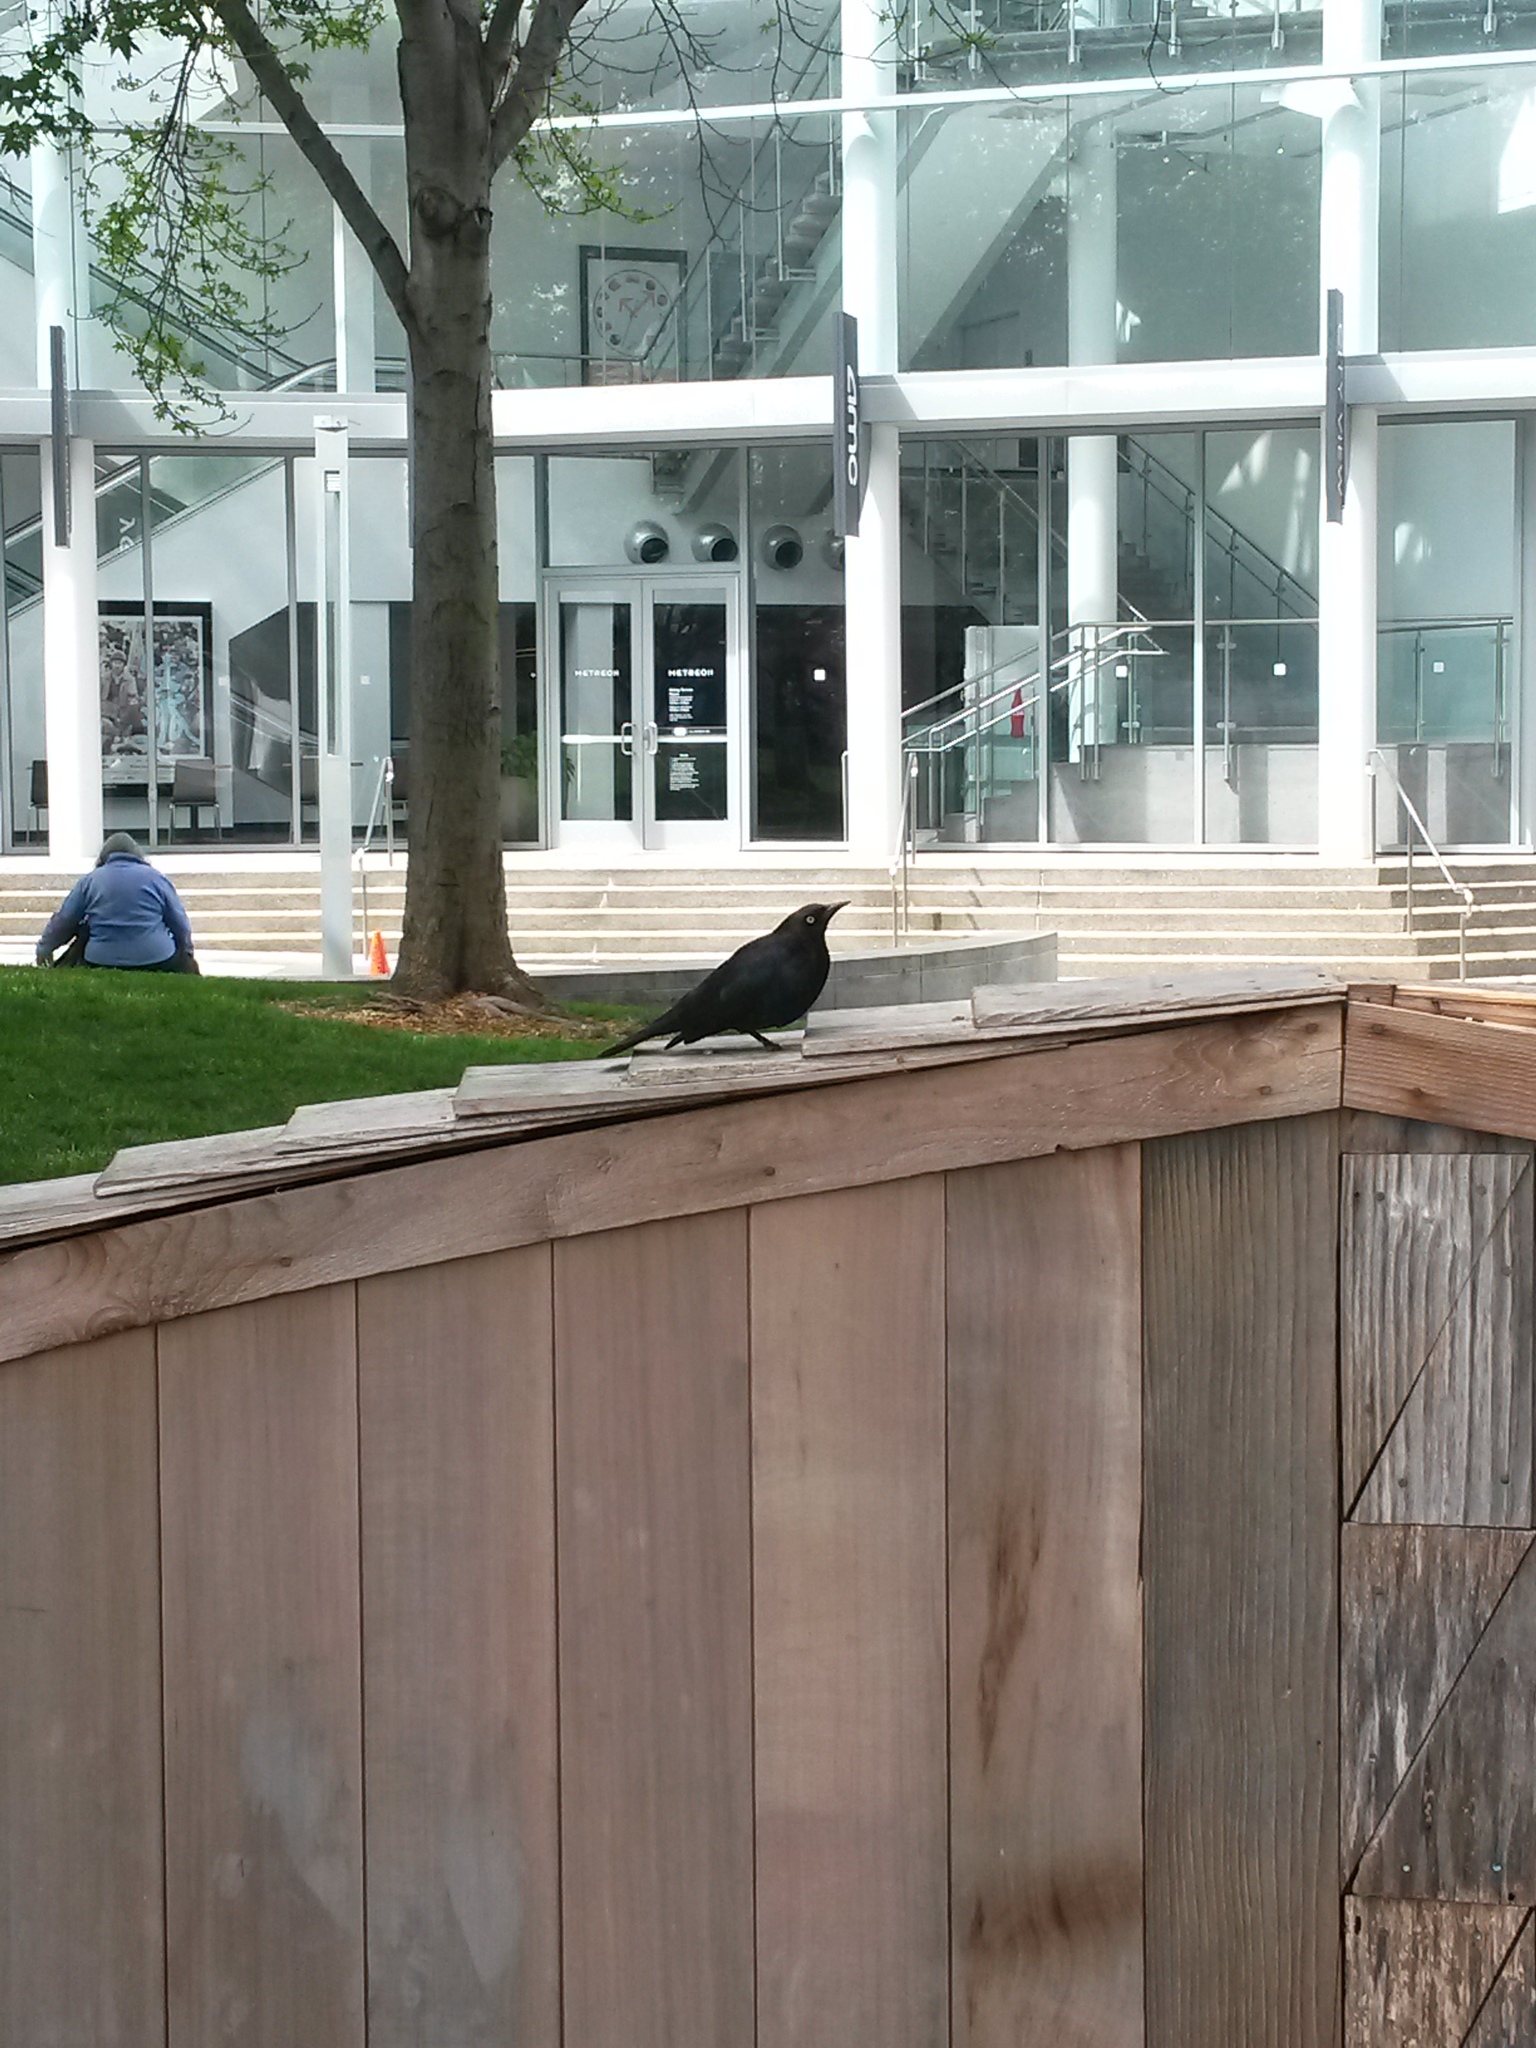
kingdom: Animalia
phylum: Chordata
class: Aves
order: Passeriformes
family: Icteridae
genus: Euphagus
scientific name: Euphagus cyanocephalus
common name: Brewer's blackbird
